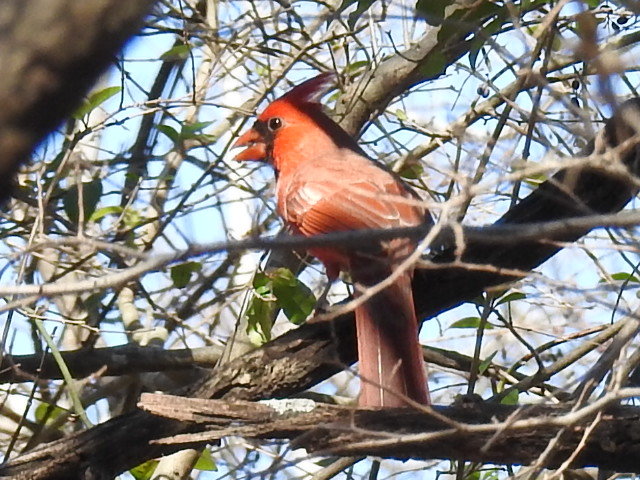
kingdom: Animalia
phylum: Chordata
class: Aves
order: Passeriformes
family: Cardinalidae
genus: Cardinalis
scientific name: Cardinalis cardinalis
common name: Northern cardinal
